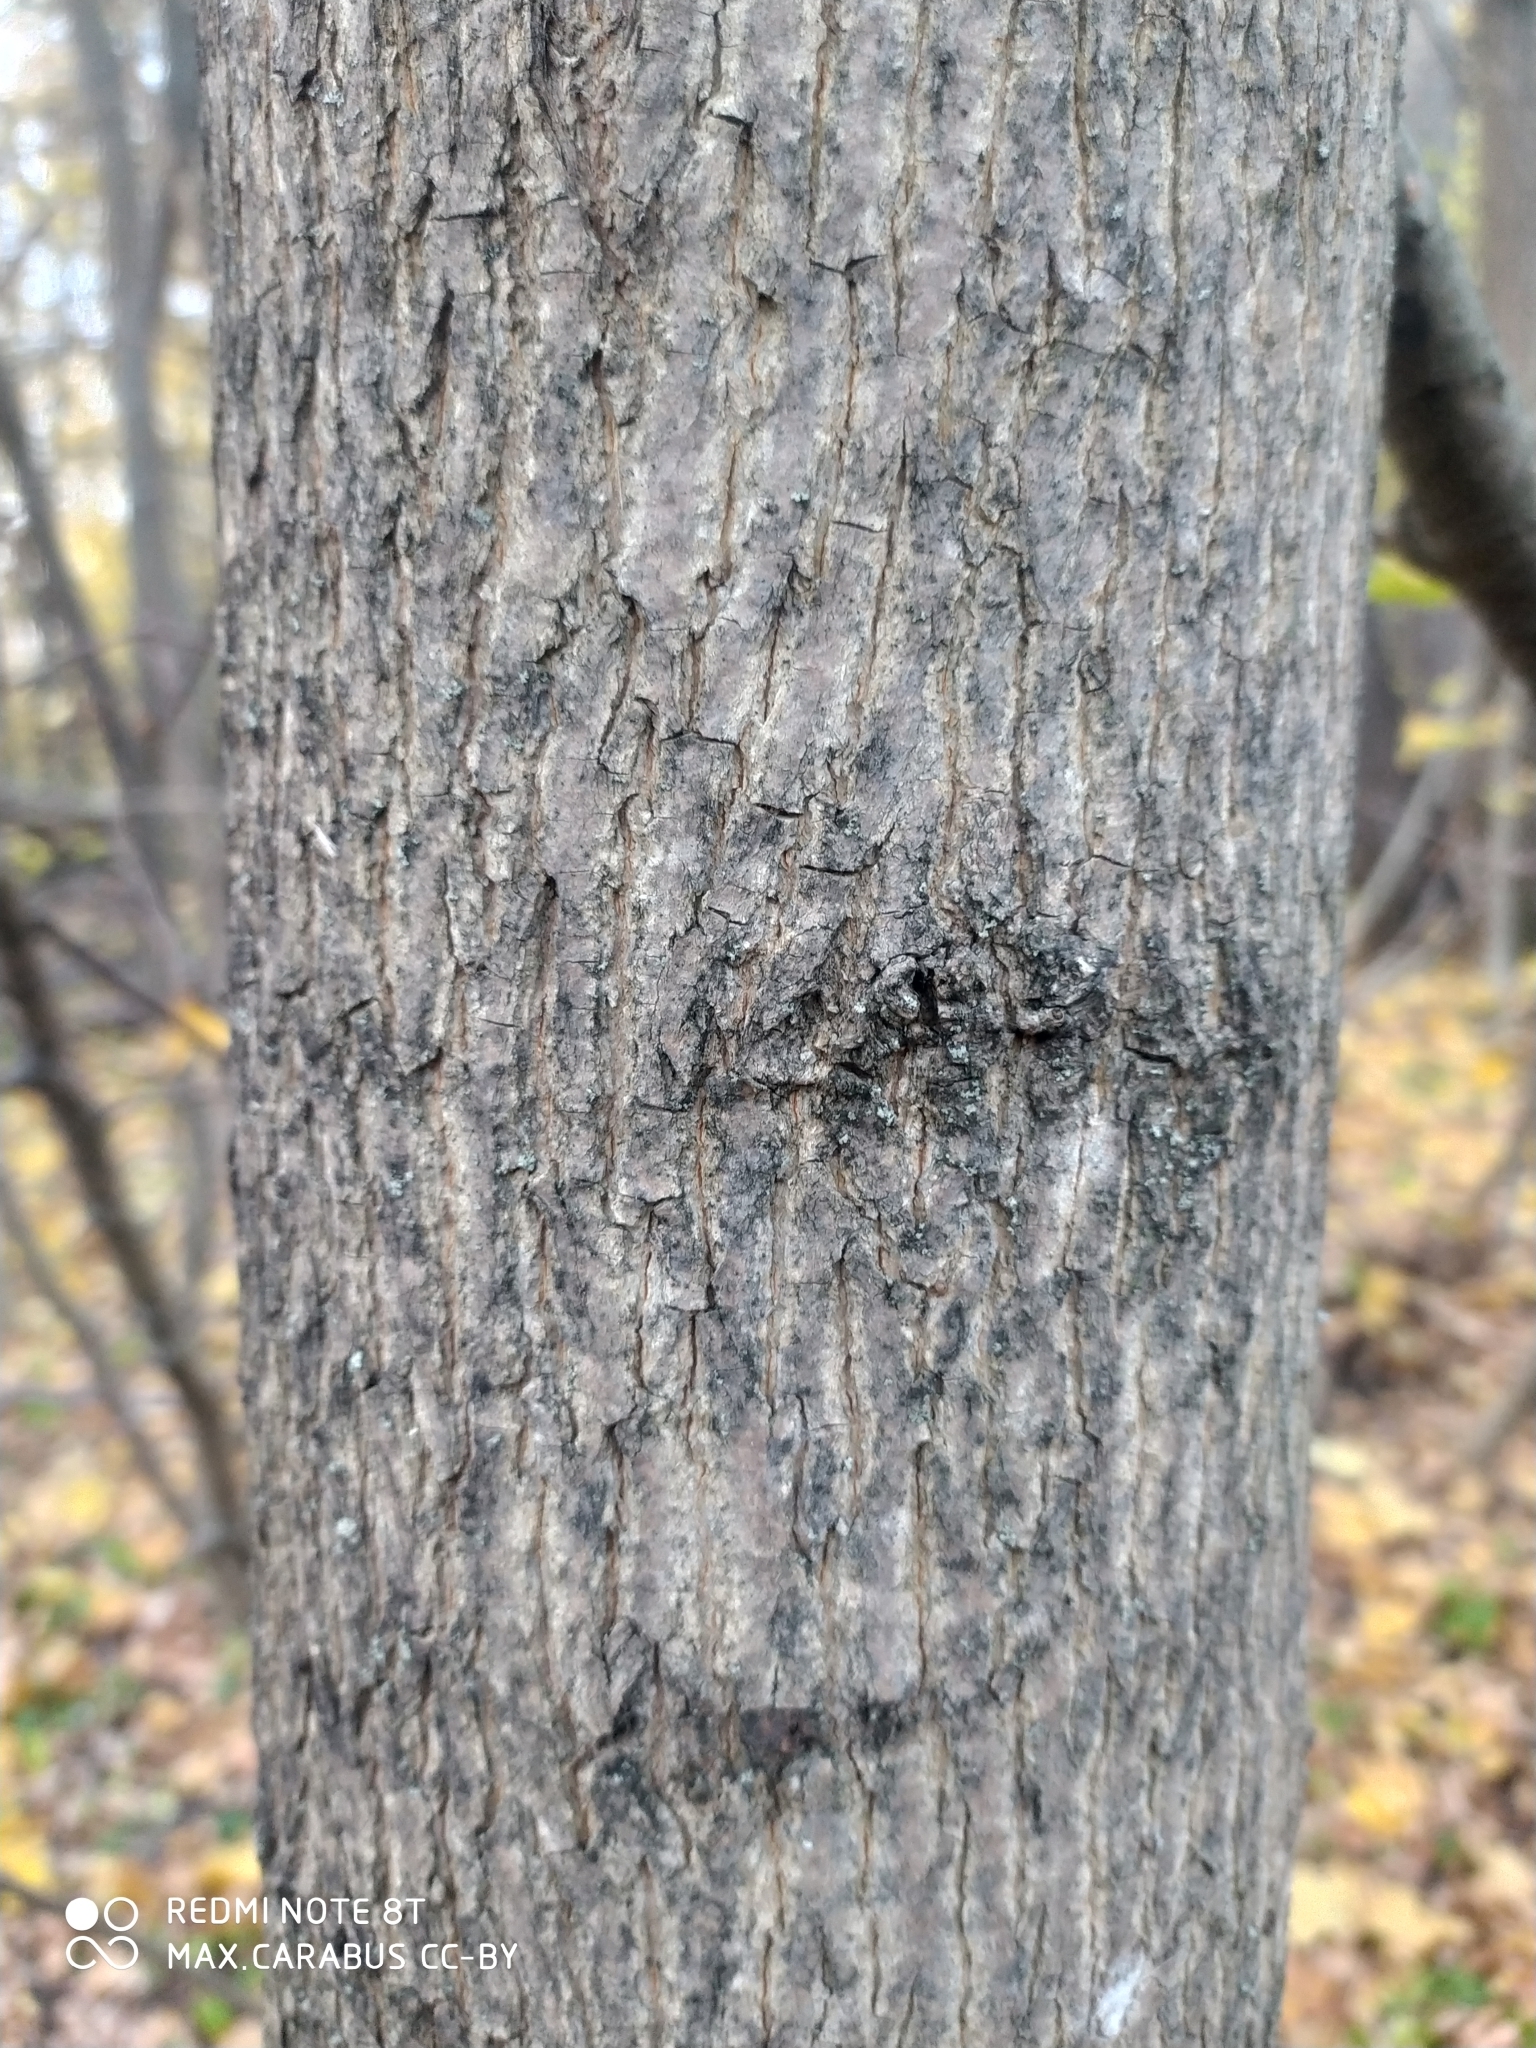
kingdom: Plantae
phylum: Tracheophyta
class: Magnoliopsida
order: Sapindales
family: Sapindaceae
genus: Acer
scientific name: Acer platanoides
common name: Norway maple
